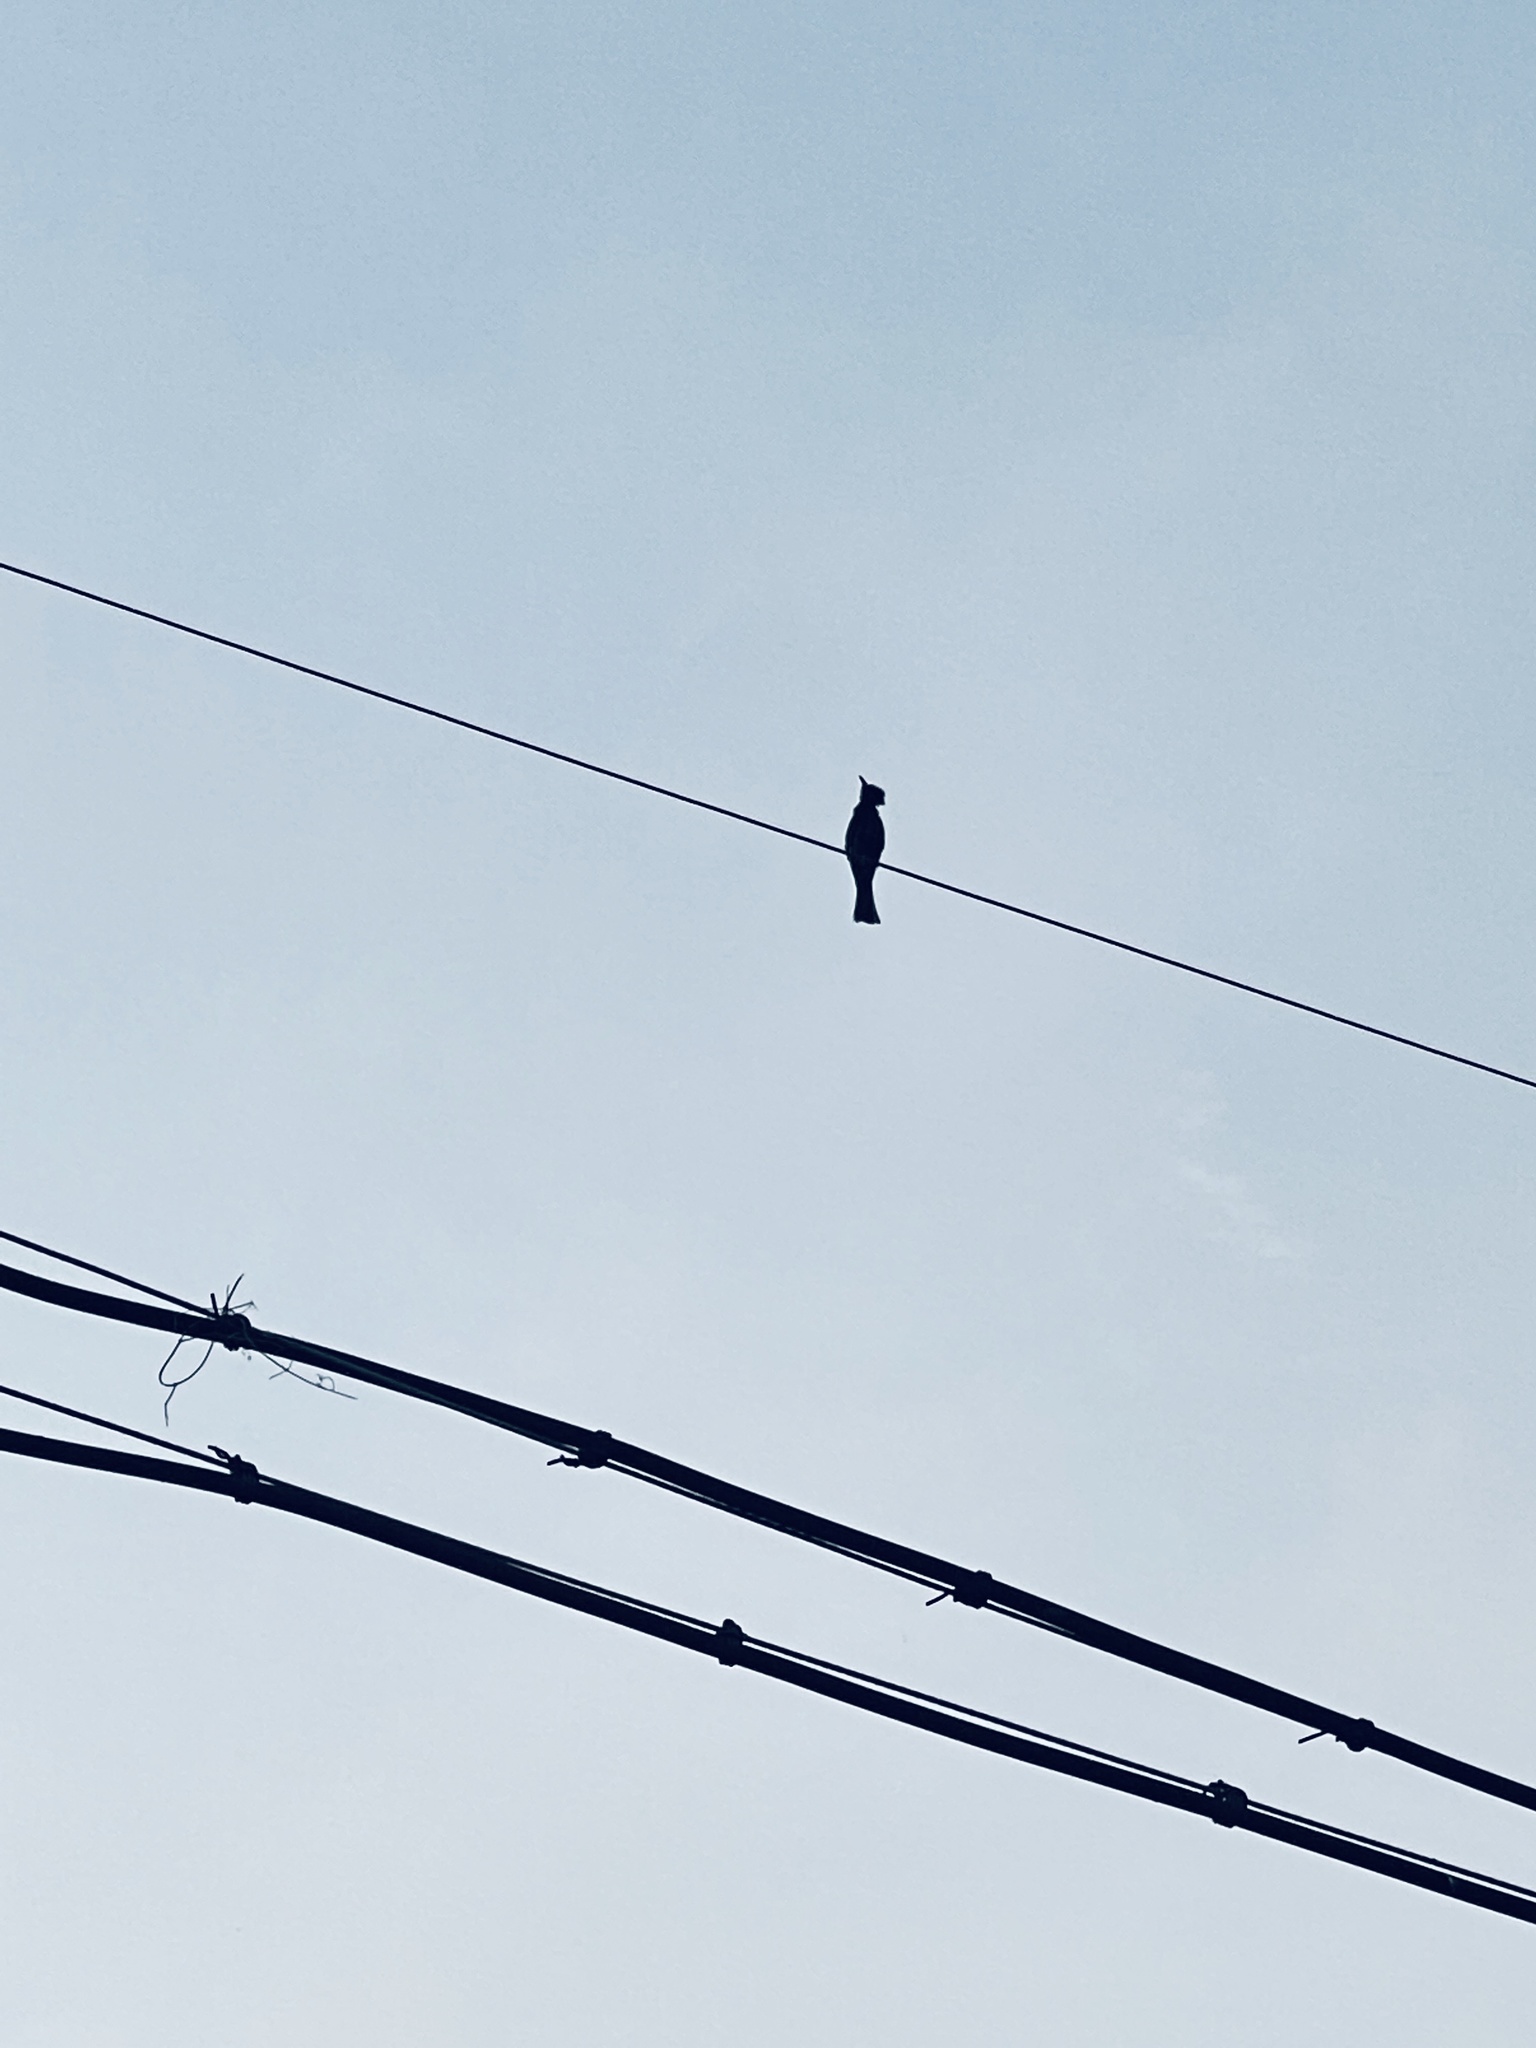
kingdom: Animalia
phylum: Chordata
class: Aves
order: Passeriformes
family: Pycnonotidae
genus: Hypsipetes
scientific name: Hypsipetes leucocephalus
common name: Black bulbul
